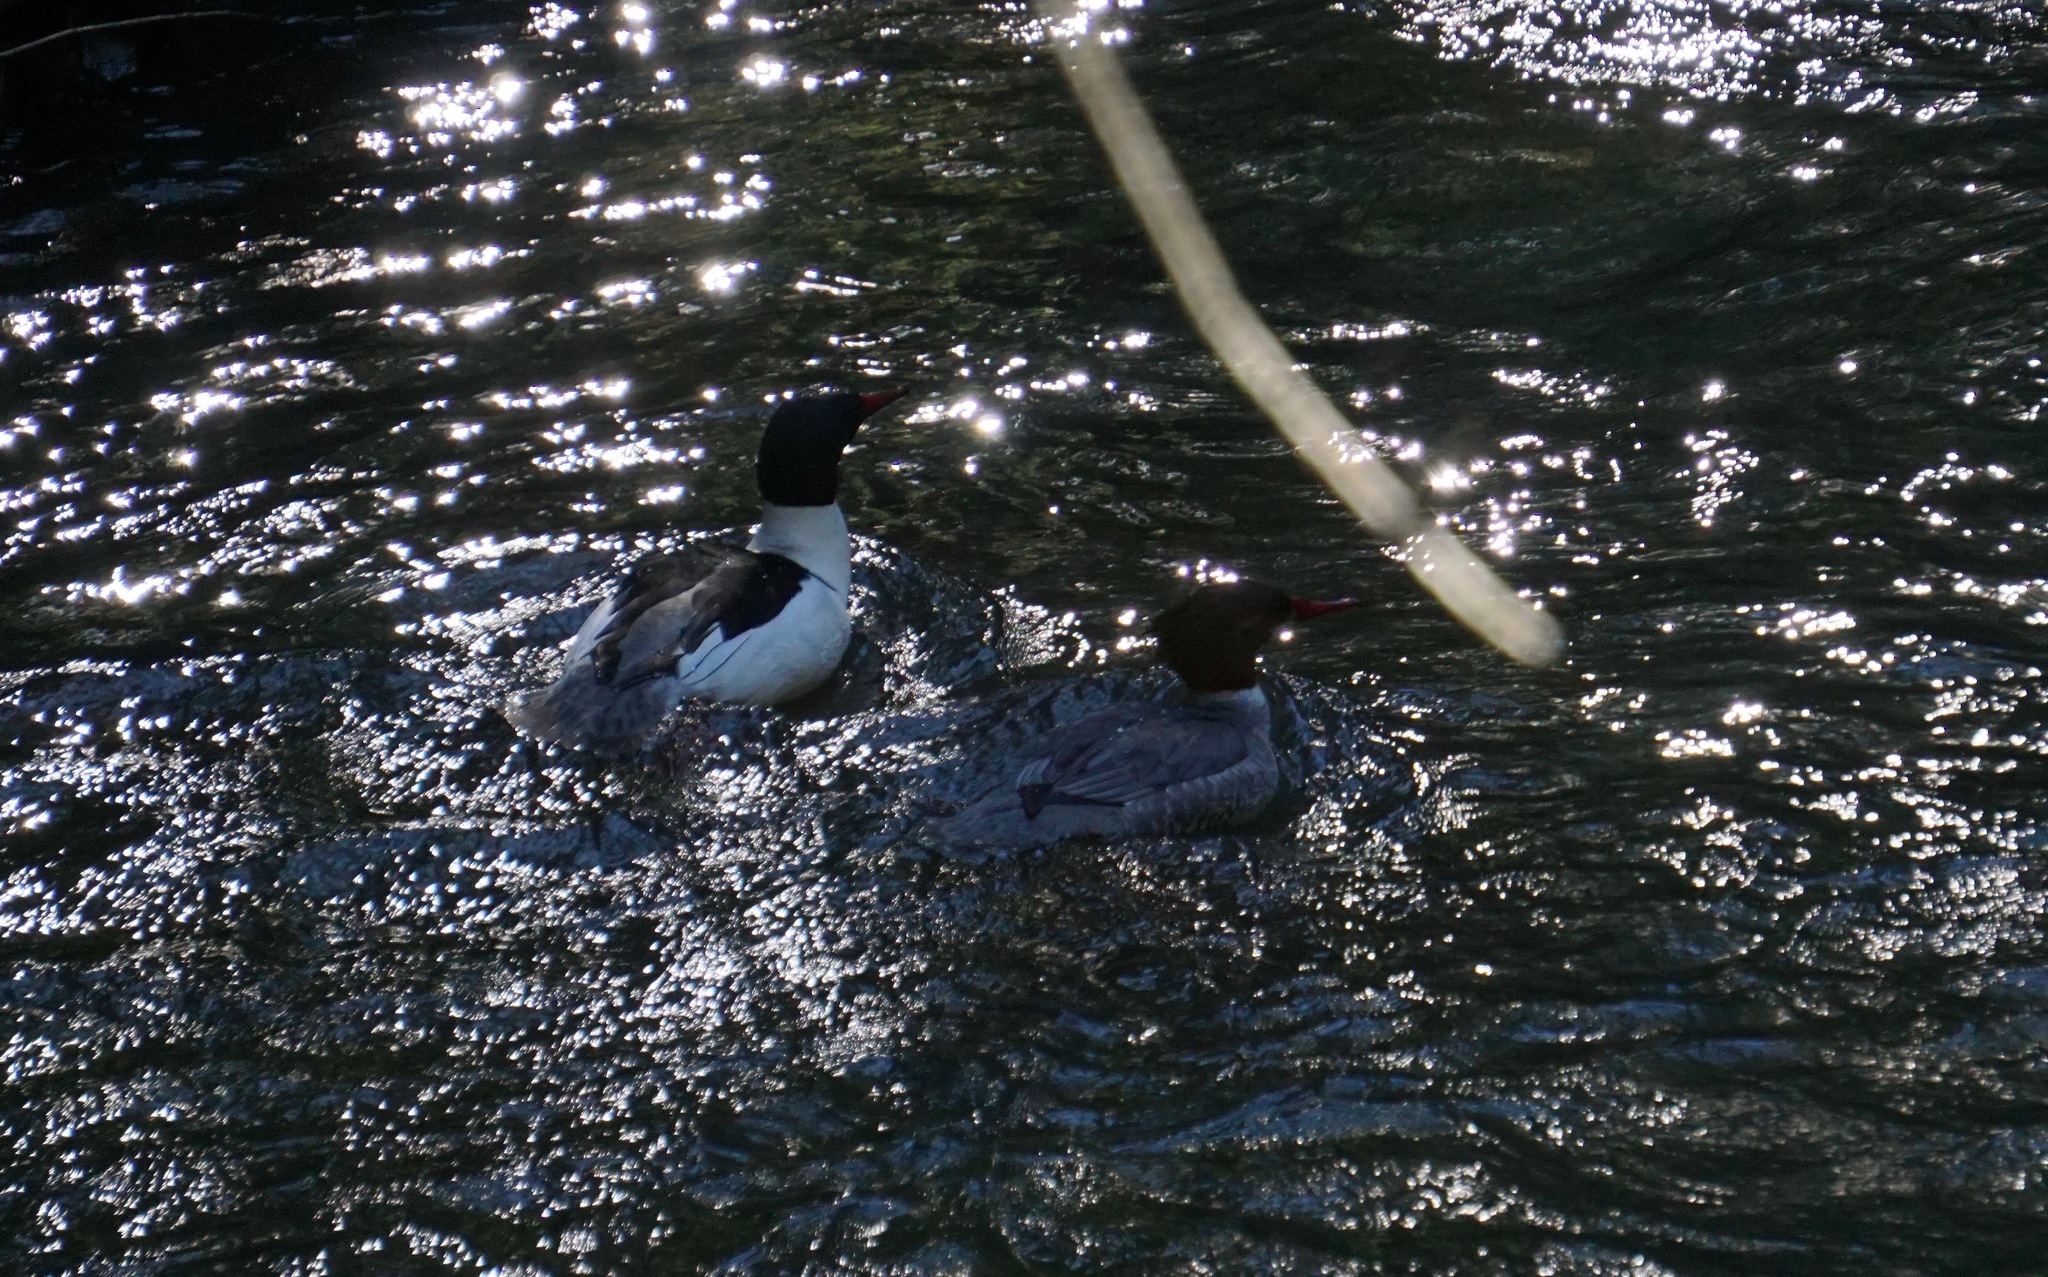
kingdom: Animalia
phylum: Chordata
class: Aves
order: Anseriformes
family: Anatidae
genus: Mergus
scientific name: Mergus merganser
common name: Common merganser
